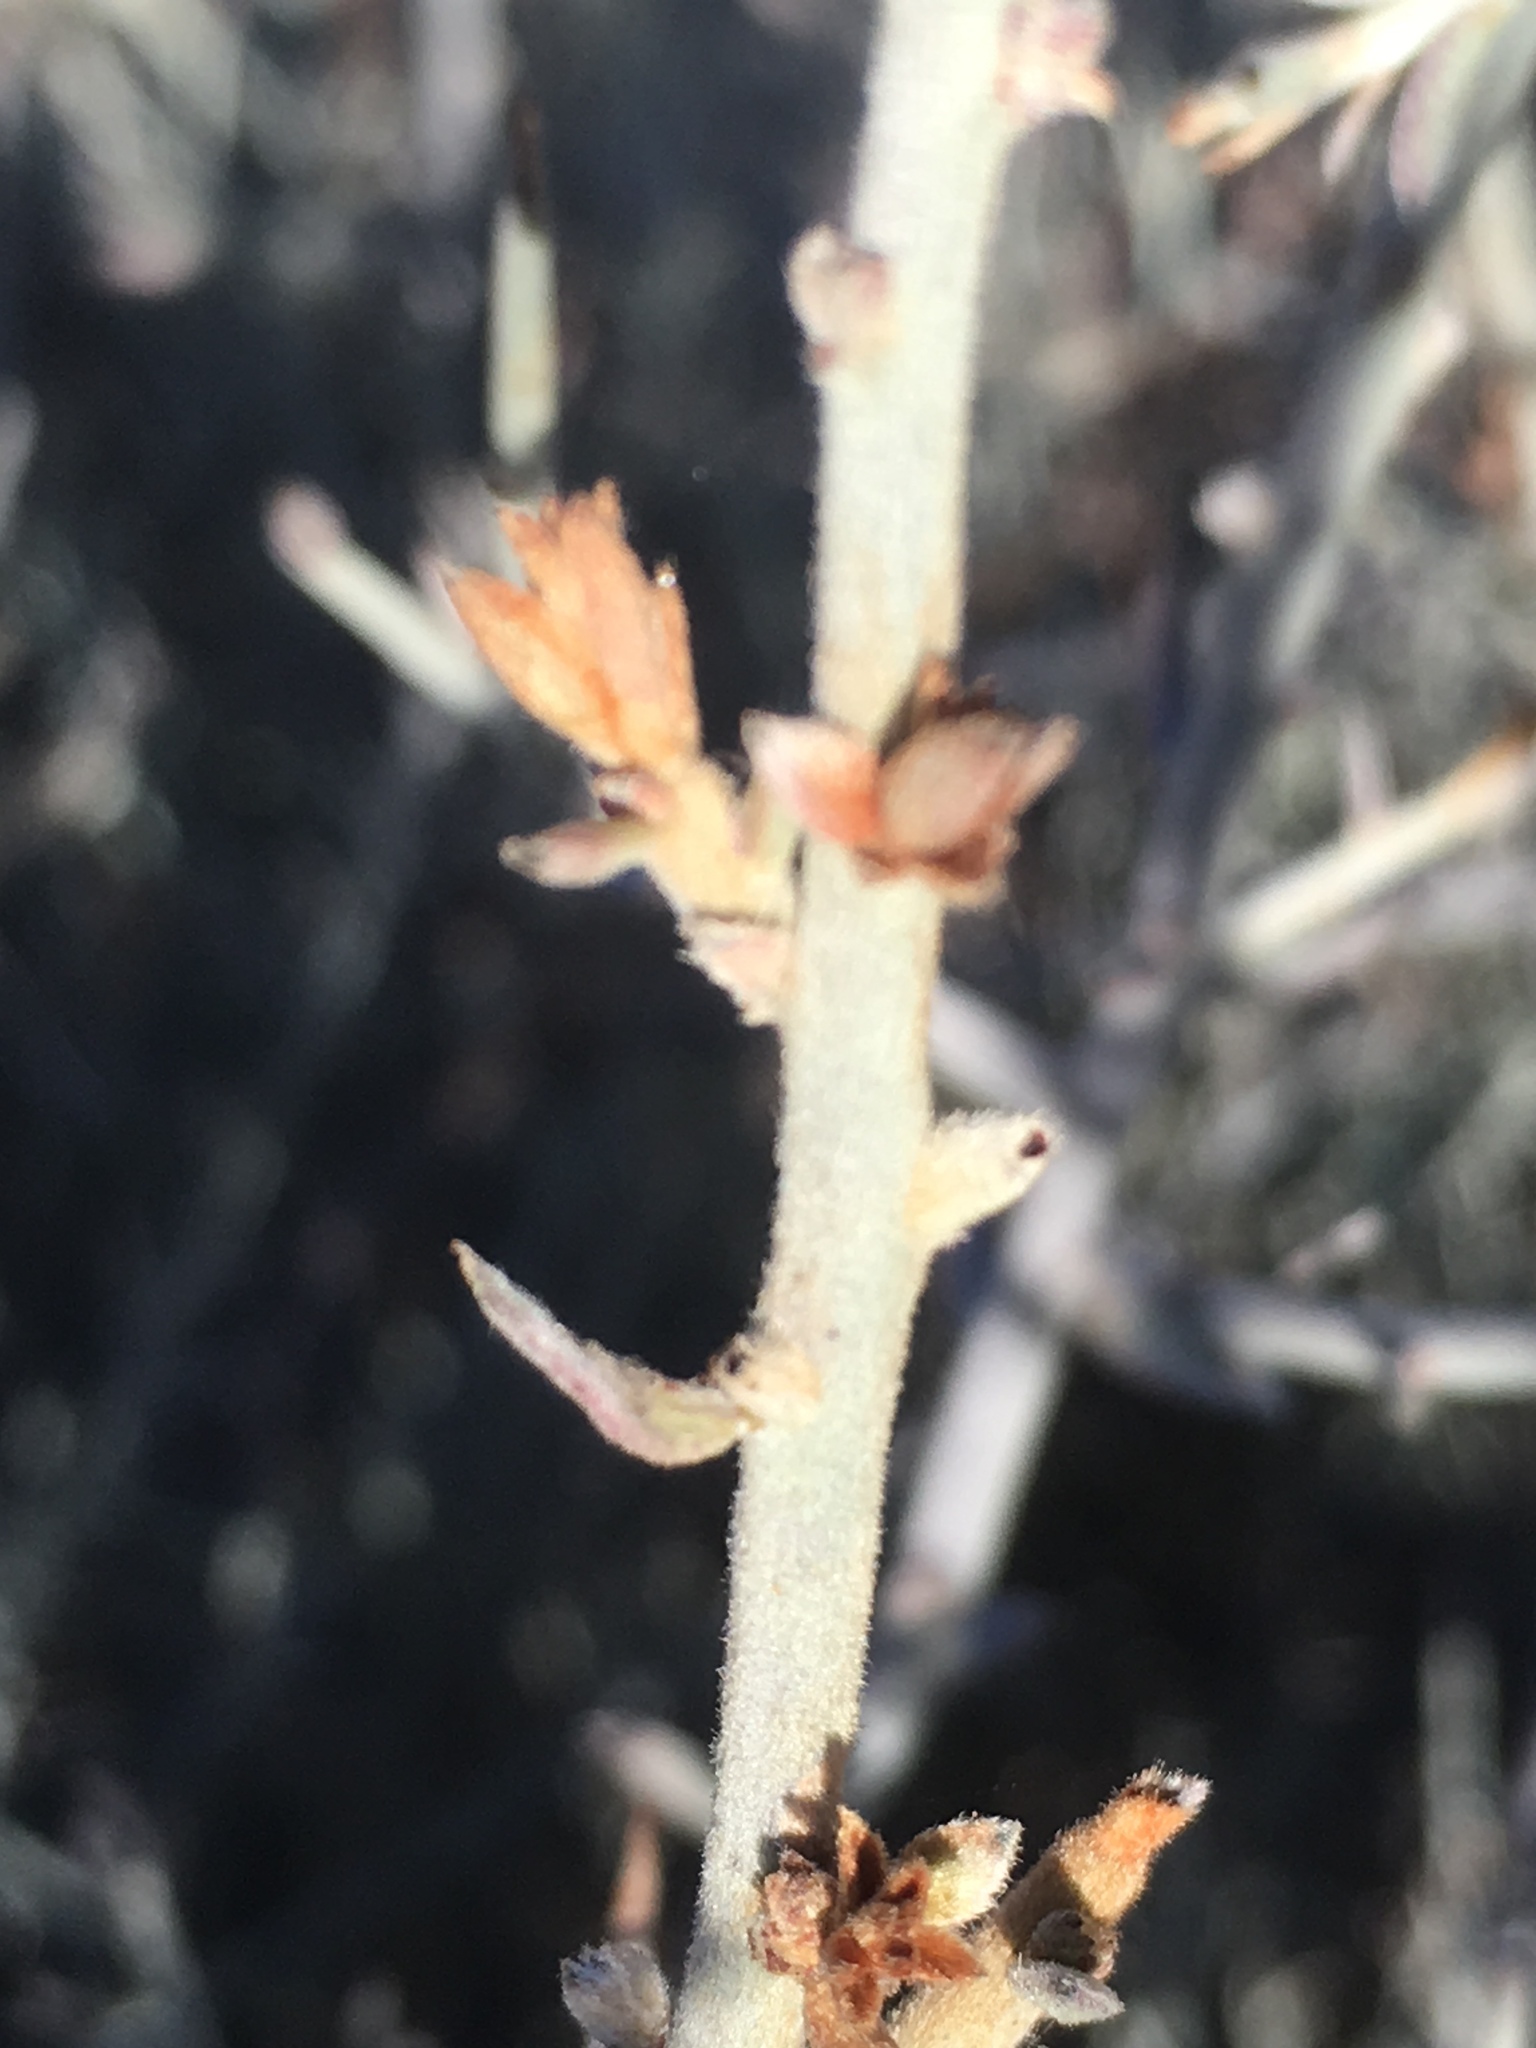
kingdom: Plantae
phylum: Tracheophyta
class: Magnoliopsida
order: Zygophyllales
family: Krameriaceae
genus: Krameria
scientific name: Krameria bicolor
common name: White ratany
